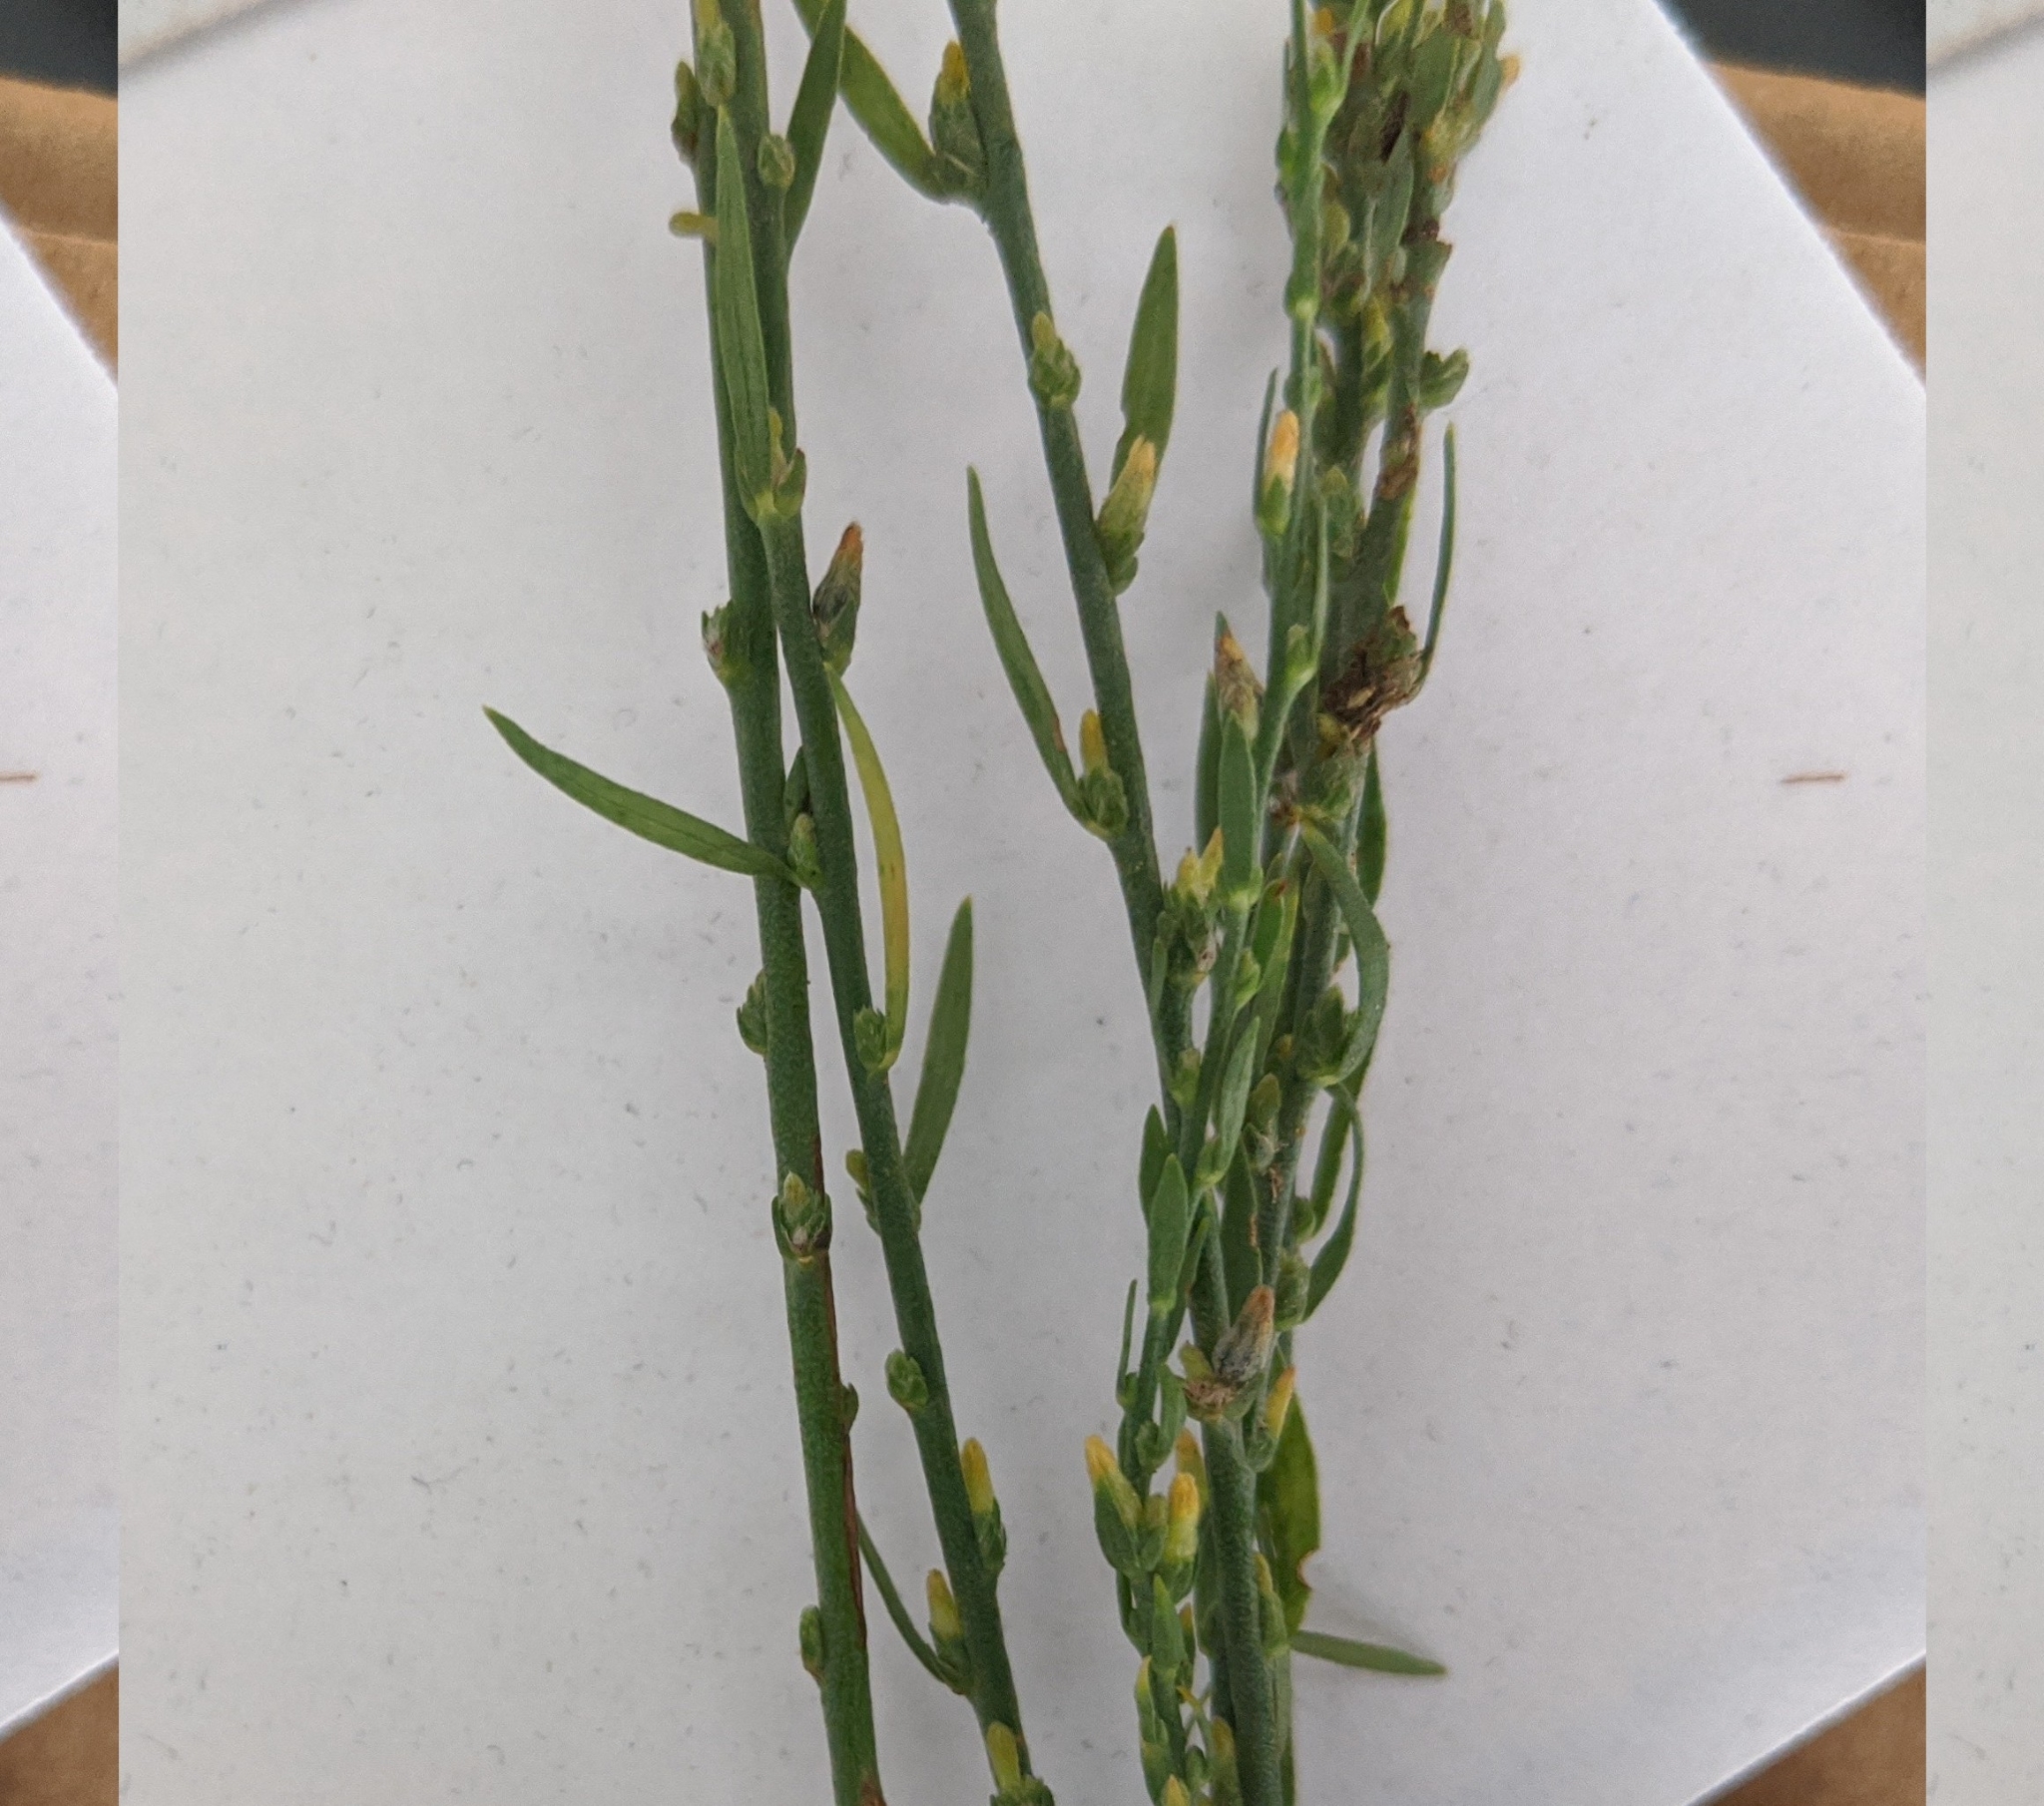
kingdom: Plantae
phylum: Tracheophyta
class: Magnoliopsida
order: Malvales
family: Thymelaeaceae
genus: Thymelaea
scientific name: Thymelaea passerina
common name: Annual thymelaea
